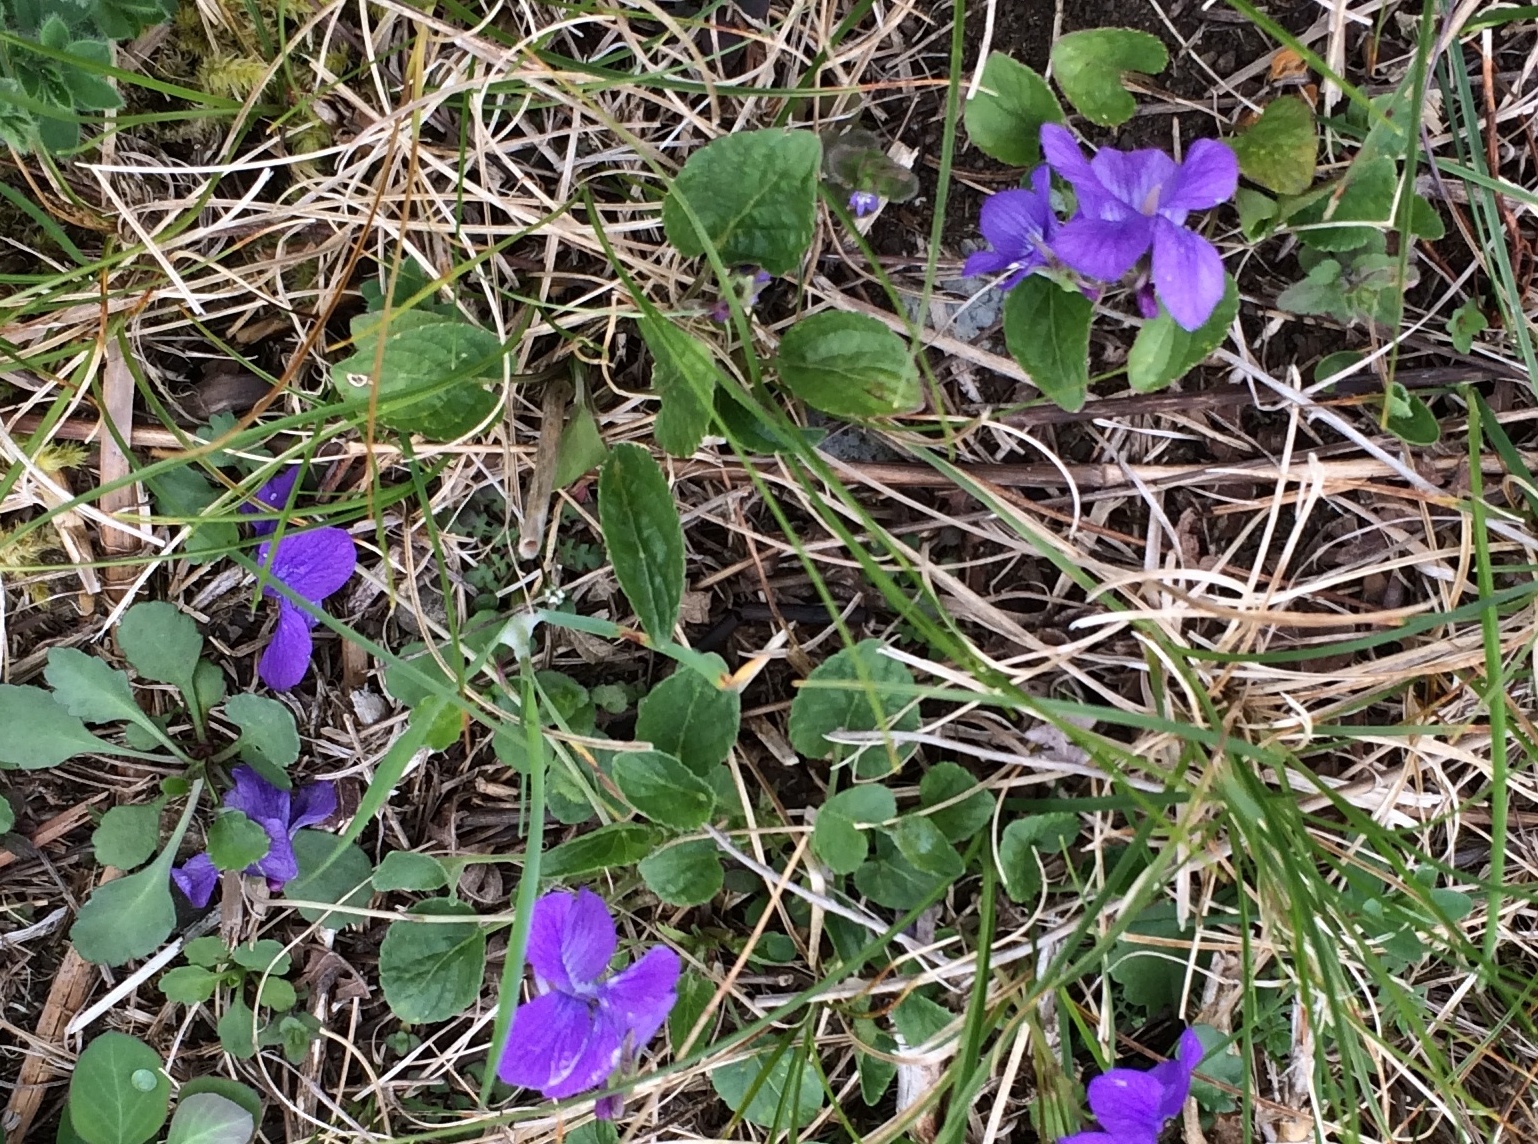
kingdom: Plantae
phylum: Tracheophyta
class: Magnoliopsida
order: Malpighiales
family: Violaceae
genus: Viola
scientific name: Viola adunca
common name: Sand violet
